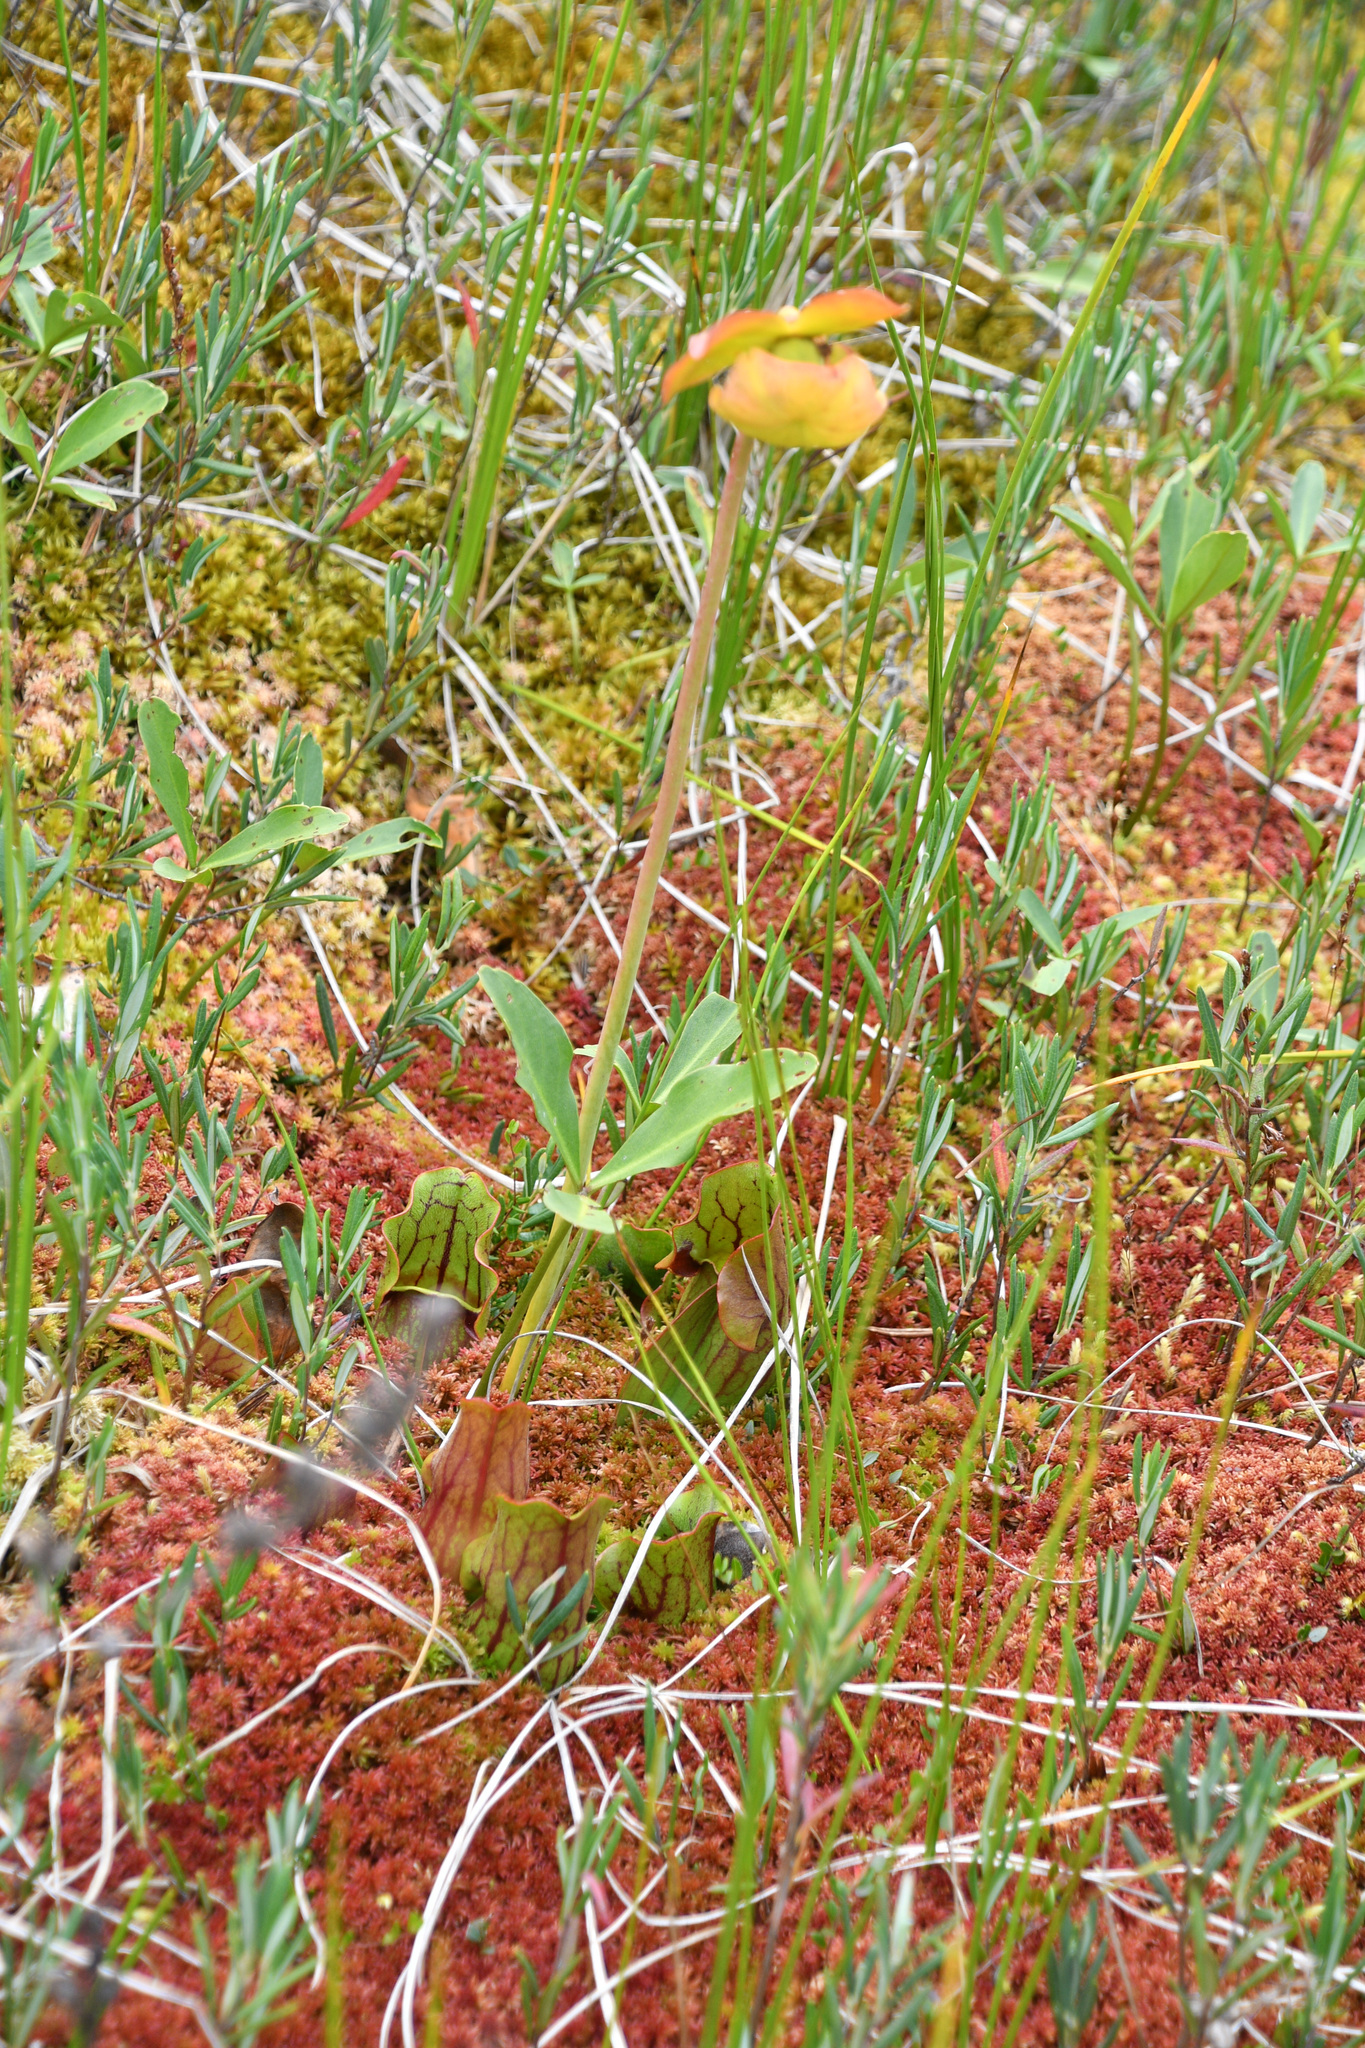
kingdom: Plantae
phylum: Tracheophyta
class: Magnoliopsida
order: Ericales
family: Sarraceniaceae
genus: Sarracenia
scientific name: Sarracenia purpurea
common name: Pitcherplant
